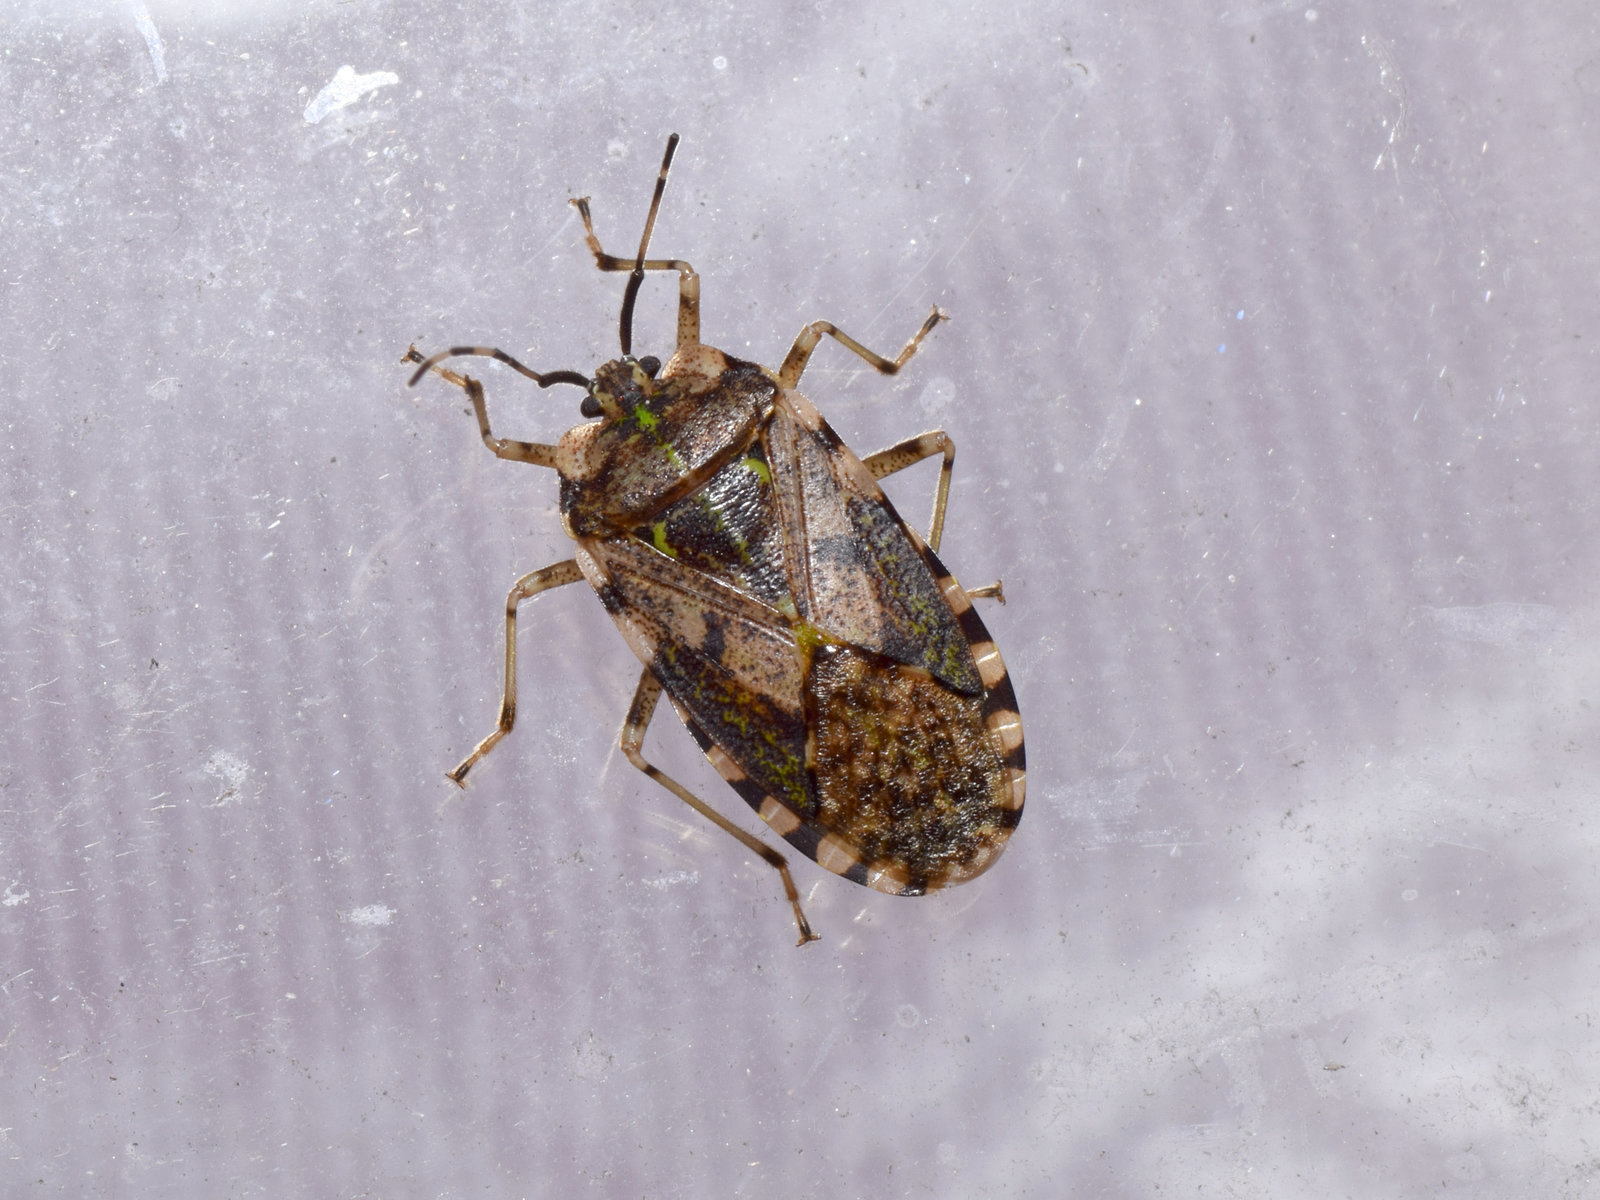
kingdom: Animalia
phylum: Arthropoda
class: Insecta
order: Hemiptera
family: Urostylididae
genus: Urochela
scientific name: Urochela
